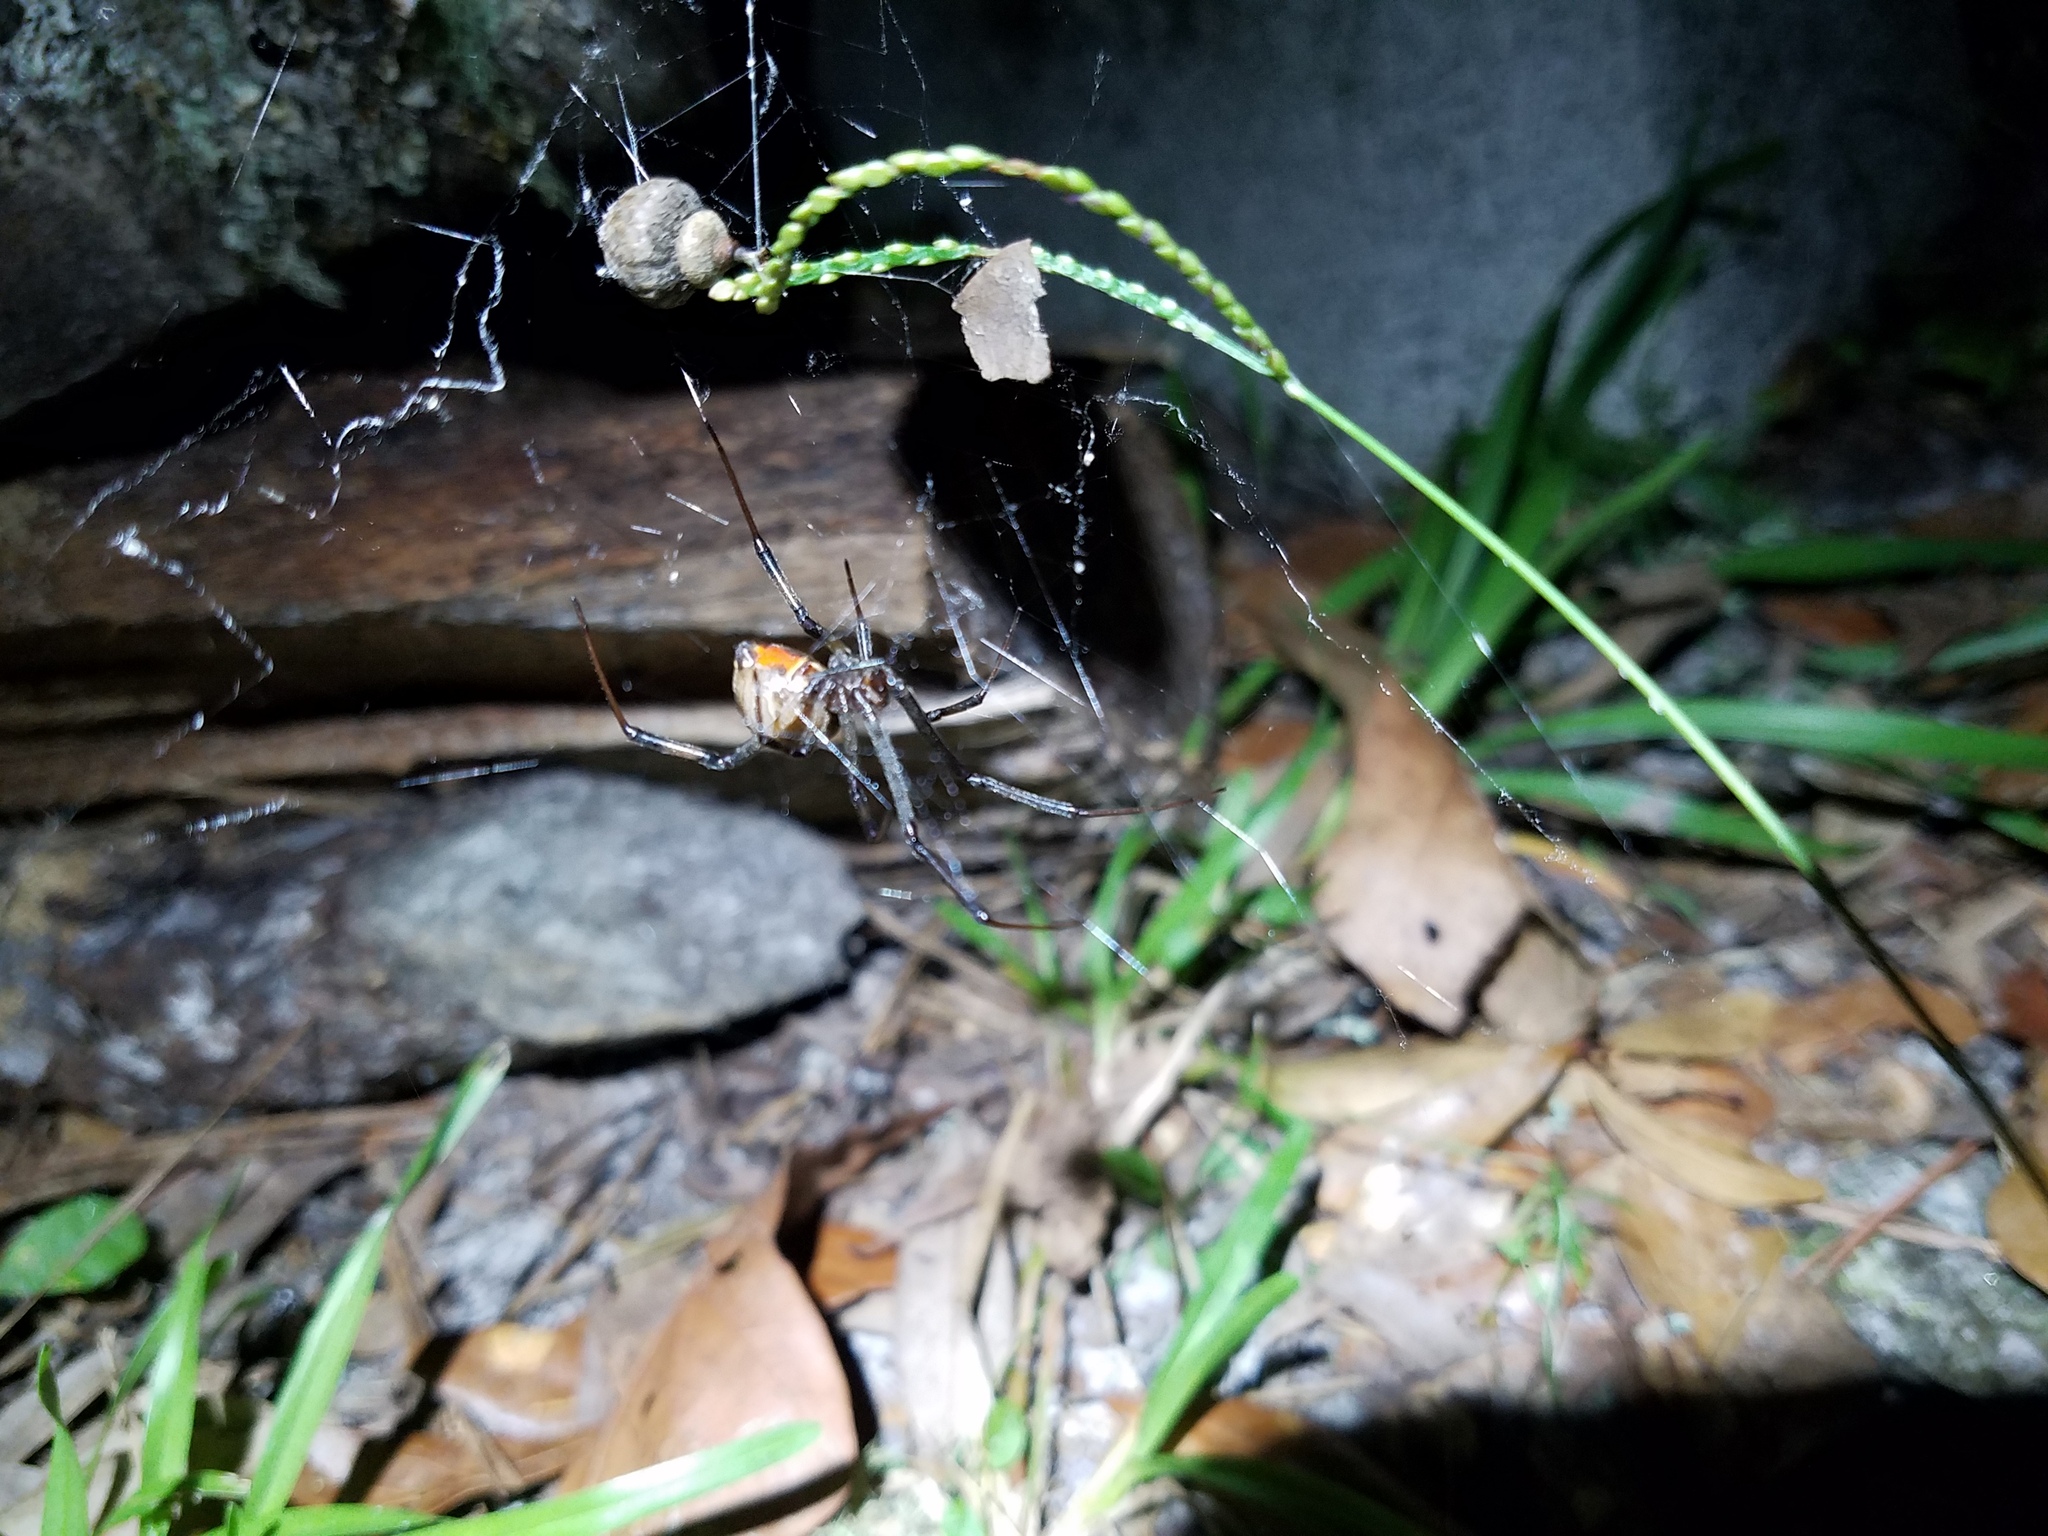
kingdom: Animalia
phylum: Arthropoda
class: Arachnida
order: Araneae
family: Theridiidae
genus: Latrodectus
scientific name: Latrodectus geometricus
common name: Brown widow spider
